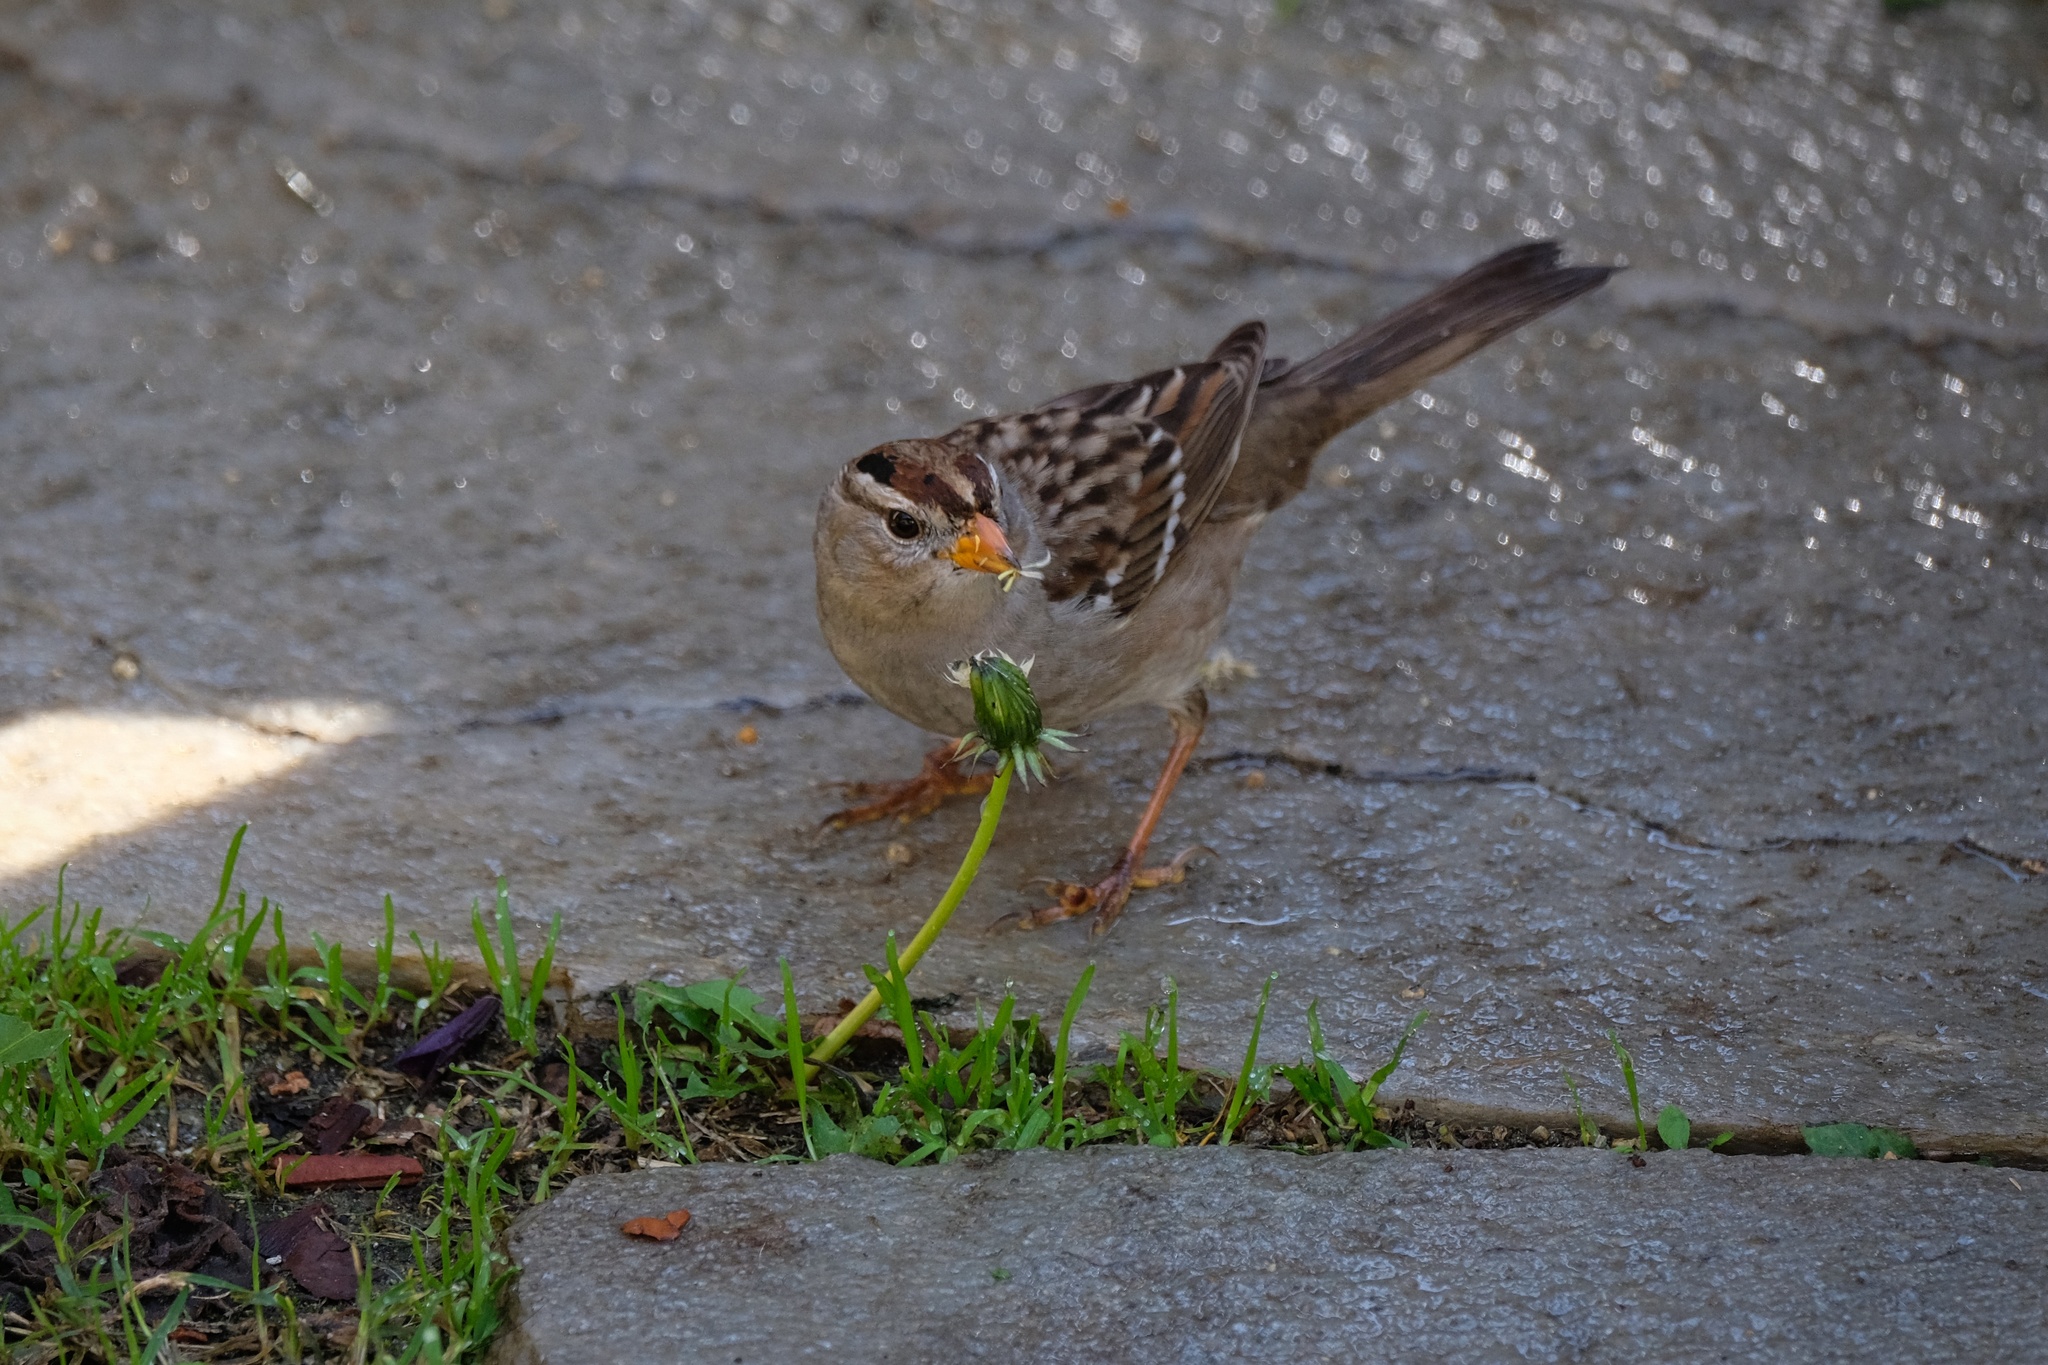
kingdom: Animalia
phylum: Chordata
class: Aves
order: Passeriformes
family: Passerellidae
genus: Zonotrichia
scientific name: Zonotrichia leucophrys
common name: White-crowned sparrow
